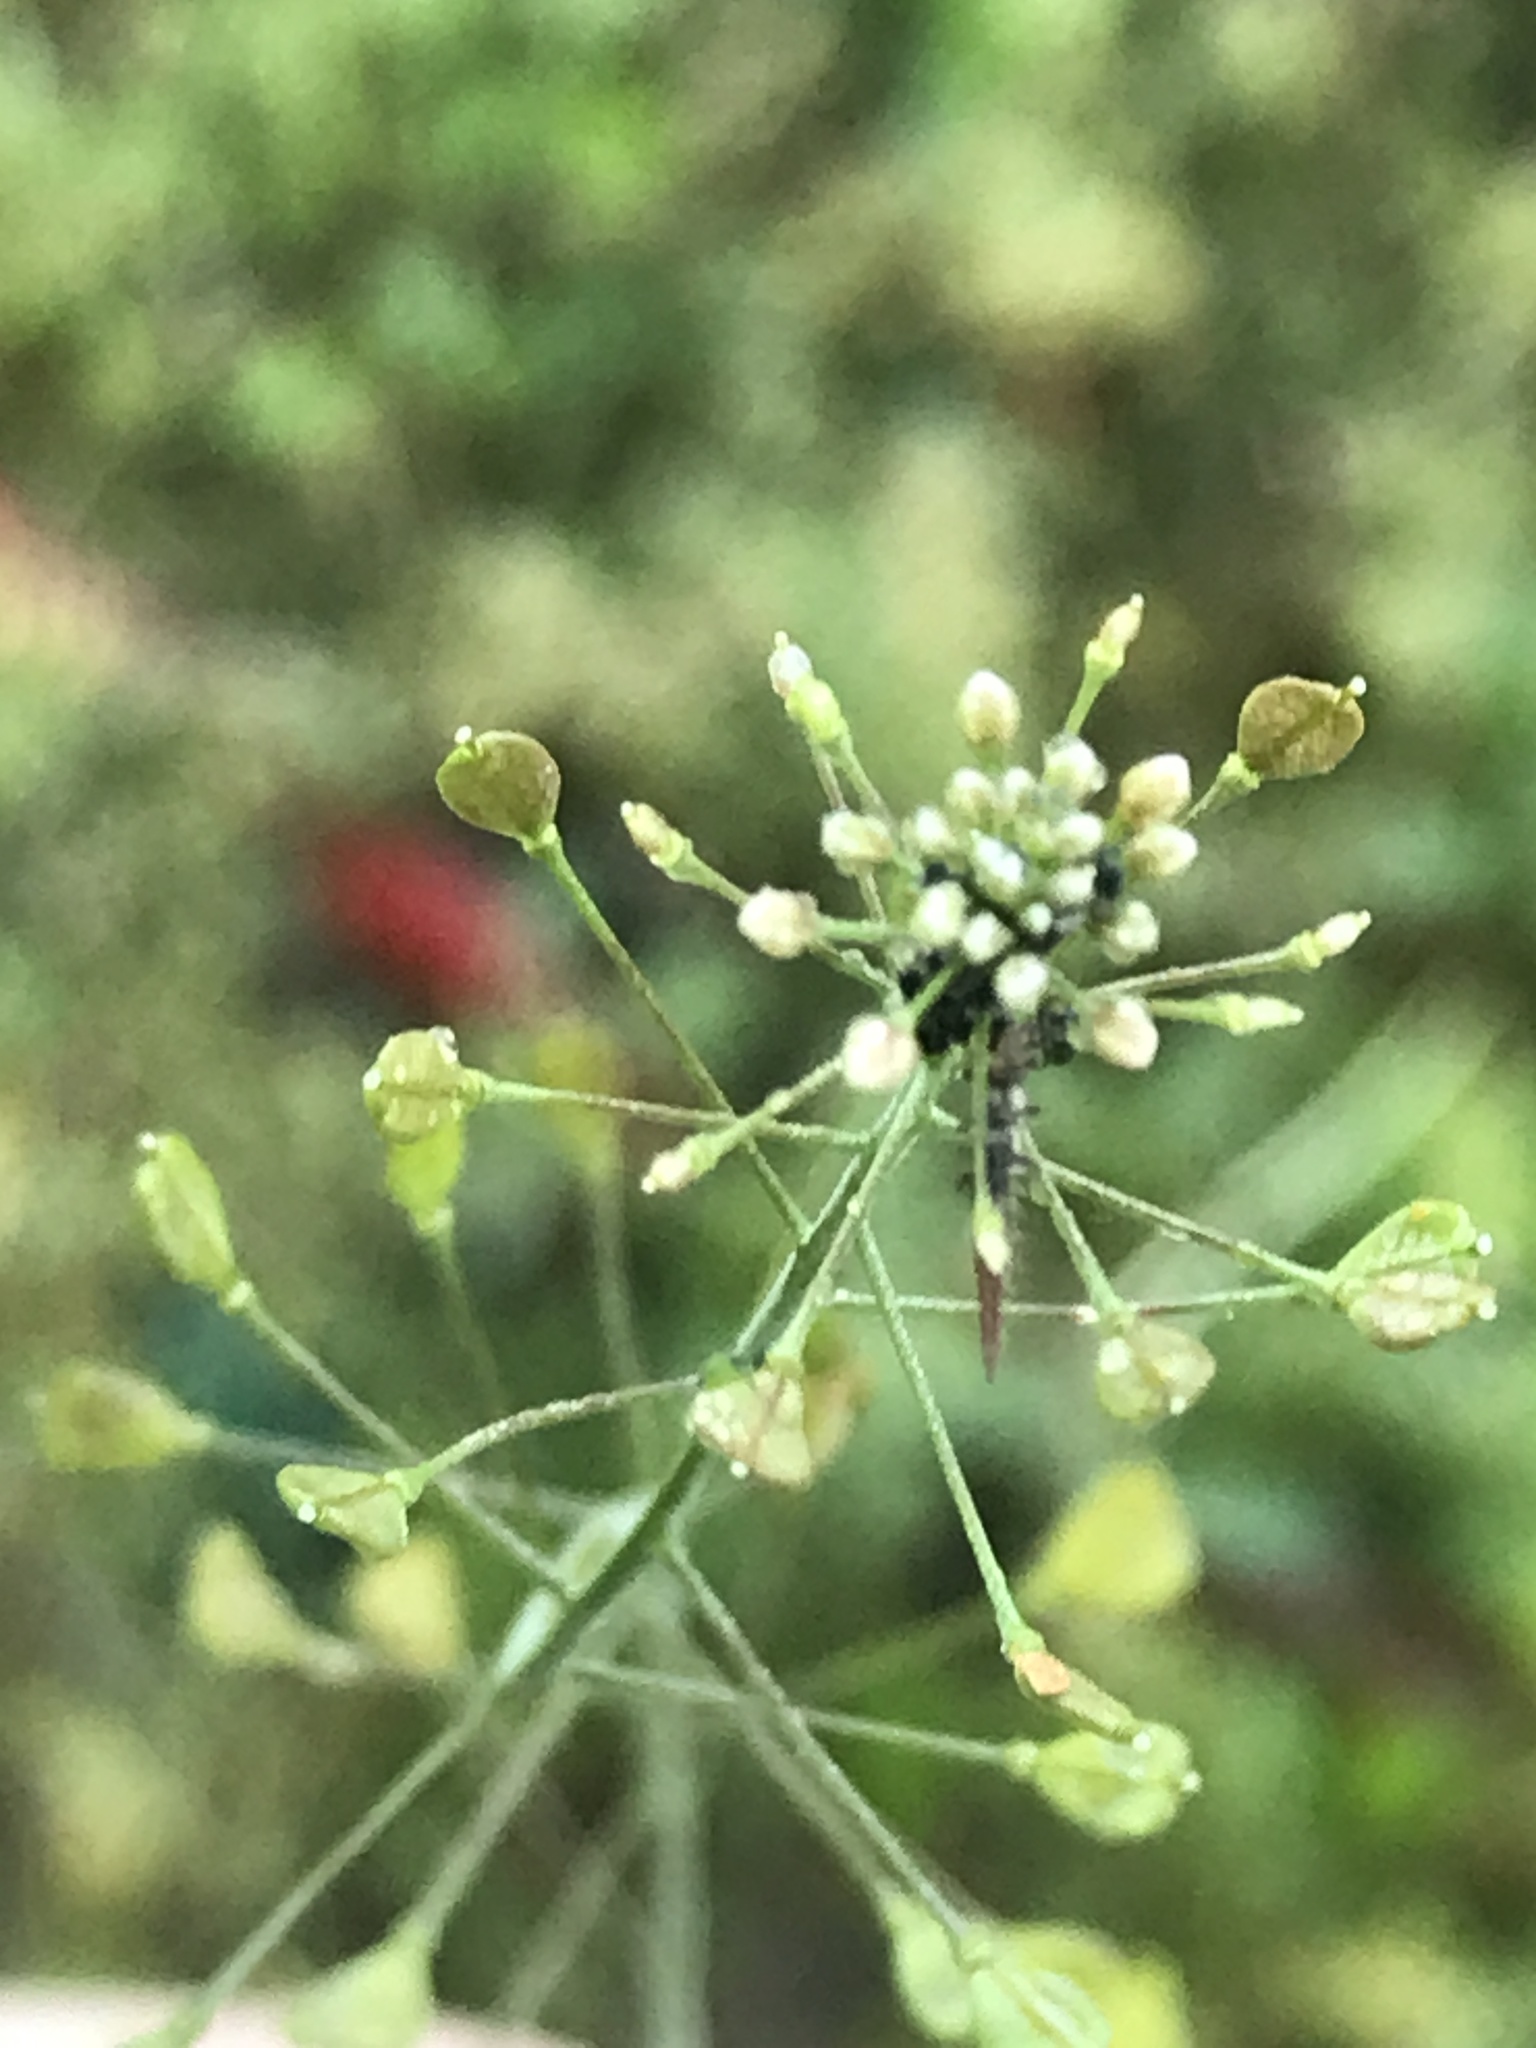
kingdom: Plantae
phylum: Tracheophyta
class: Magnoliopsida
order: Brassicales
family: Brassicaceae
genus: Capsella
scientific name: Capsella bursa-pastoris
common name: Shepherd's purse
